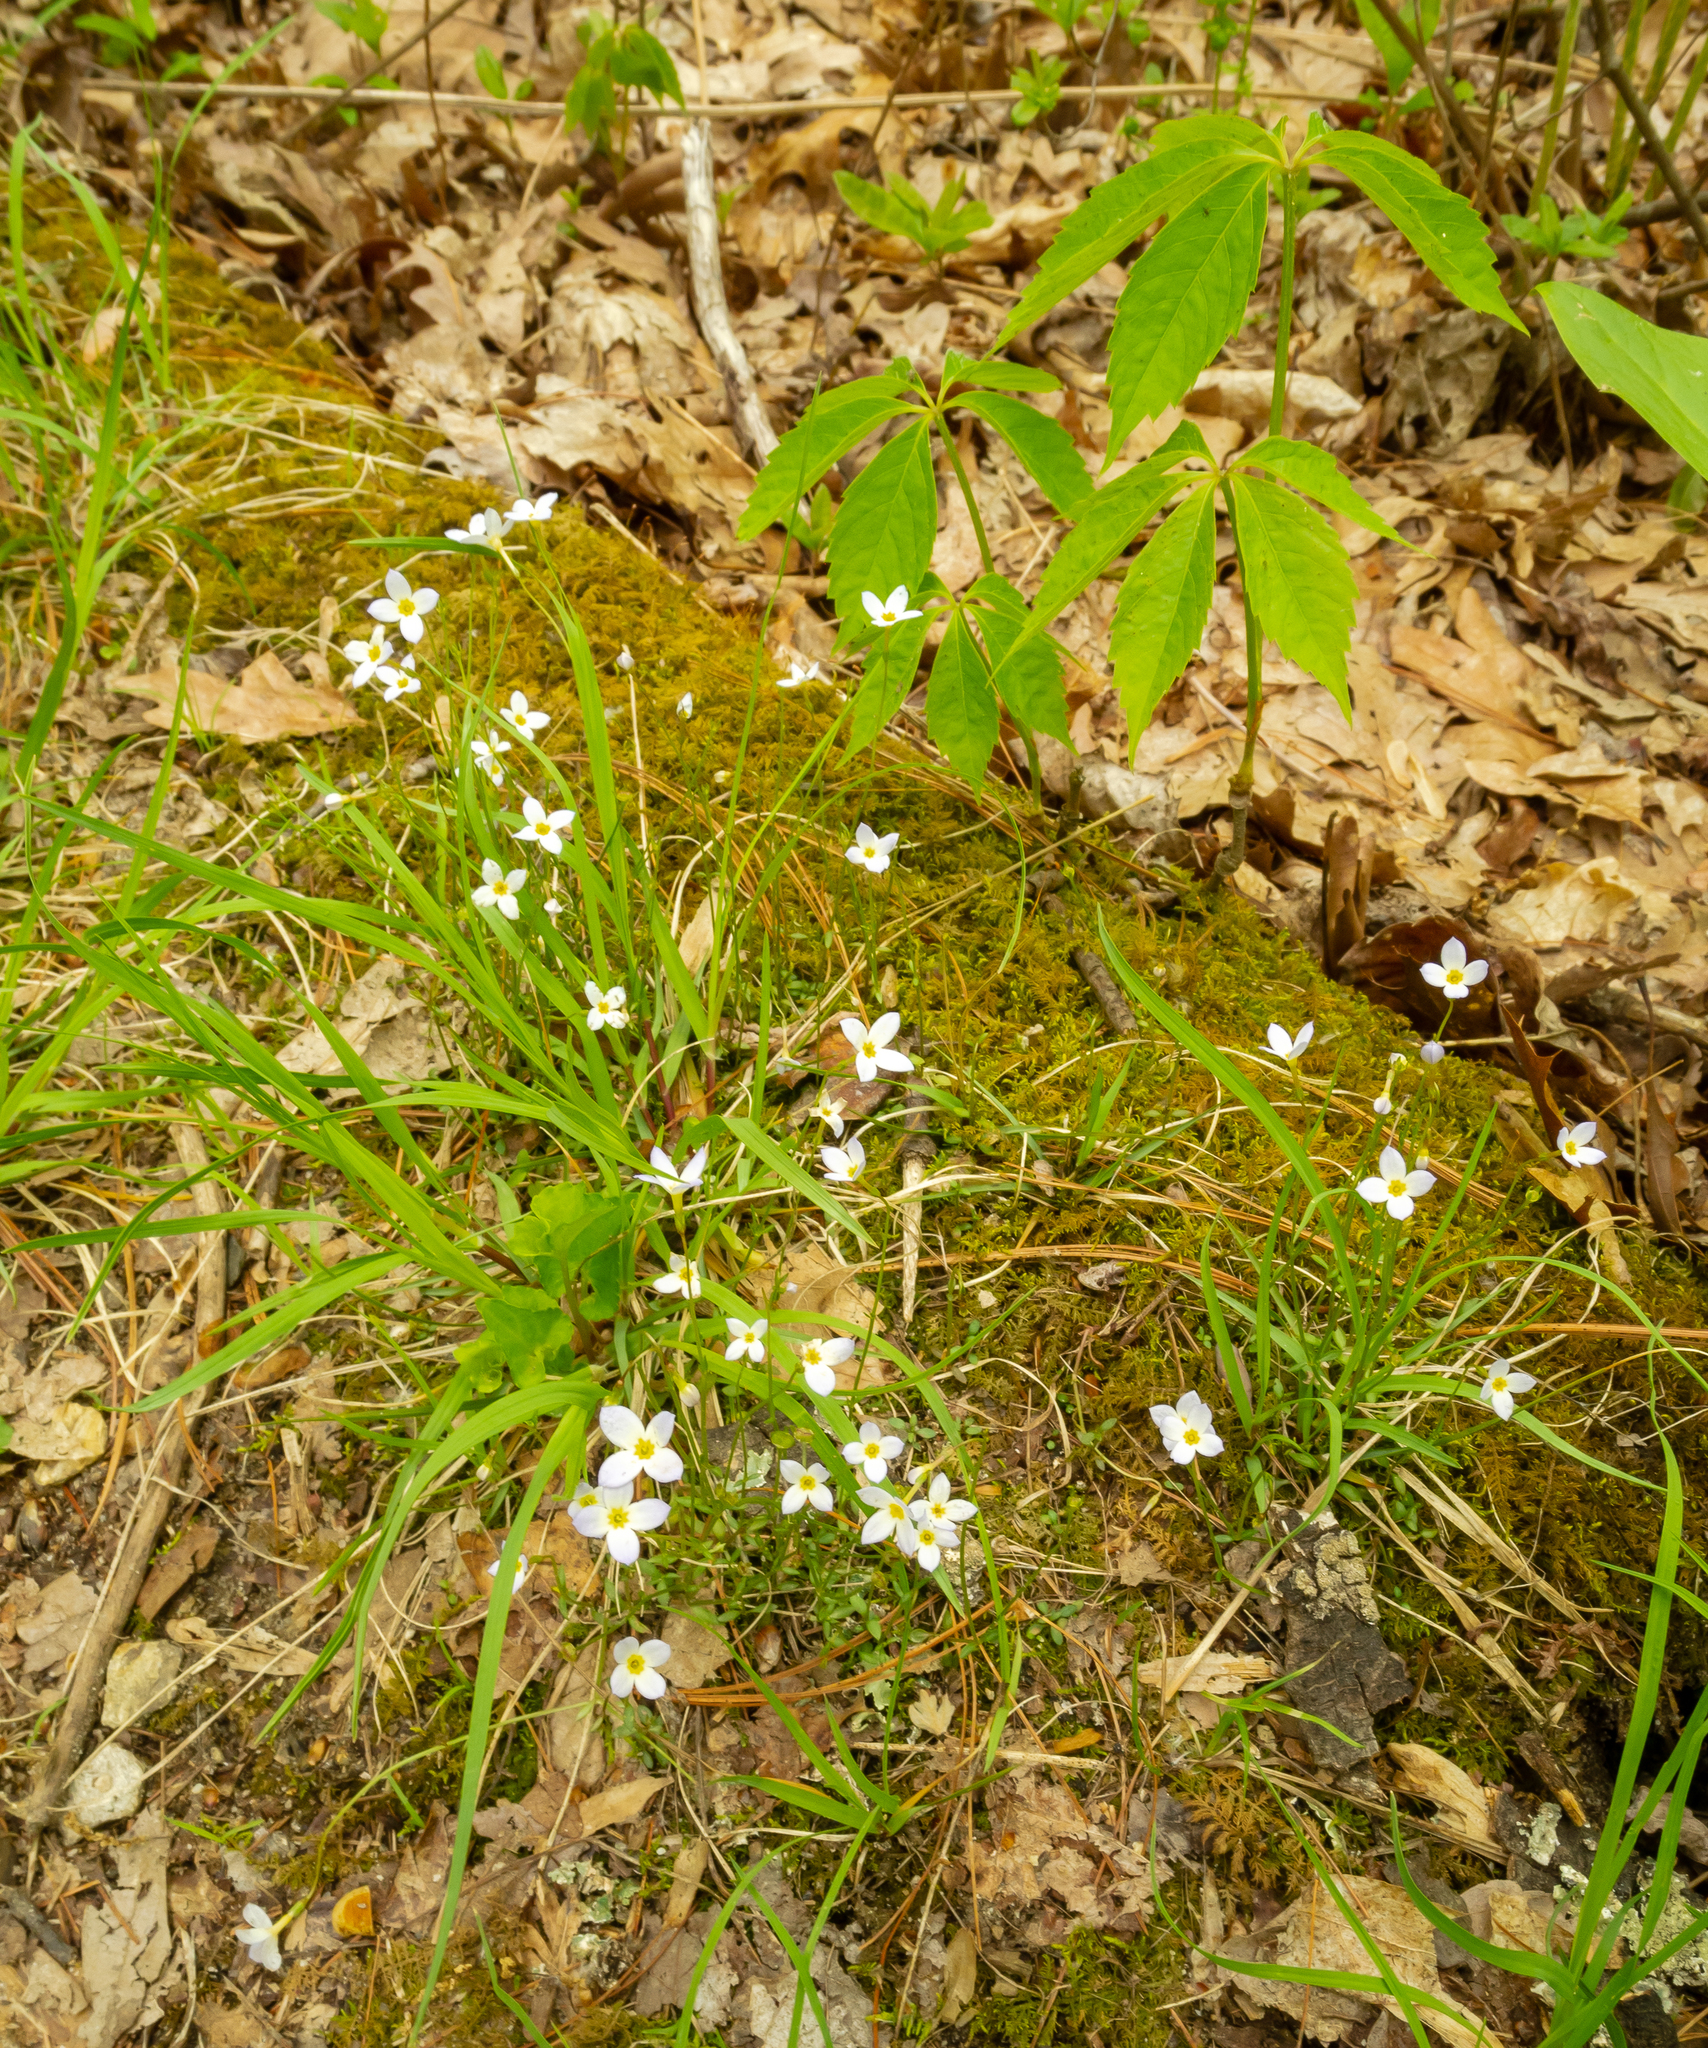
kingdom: Plantae
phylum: Tracheophyta
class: Magnoliopsida
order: Gentianales
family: Rubiaceae
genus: Houstonia
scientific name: Houstonia caerulea
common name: Bluets
